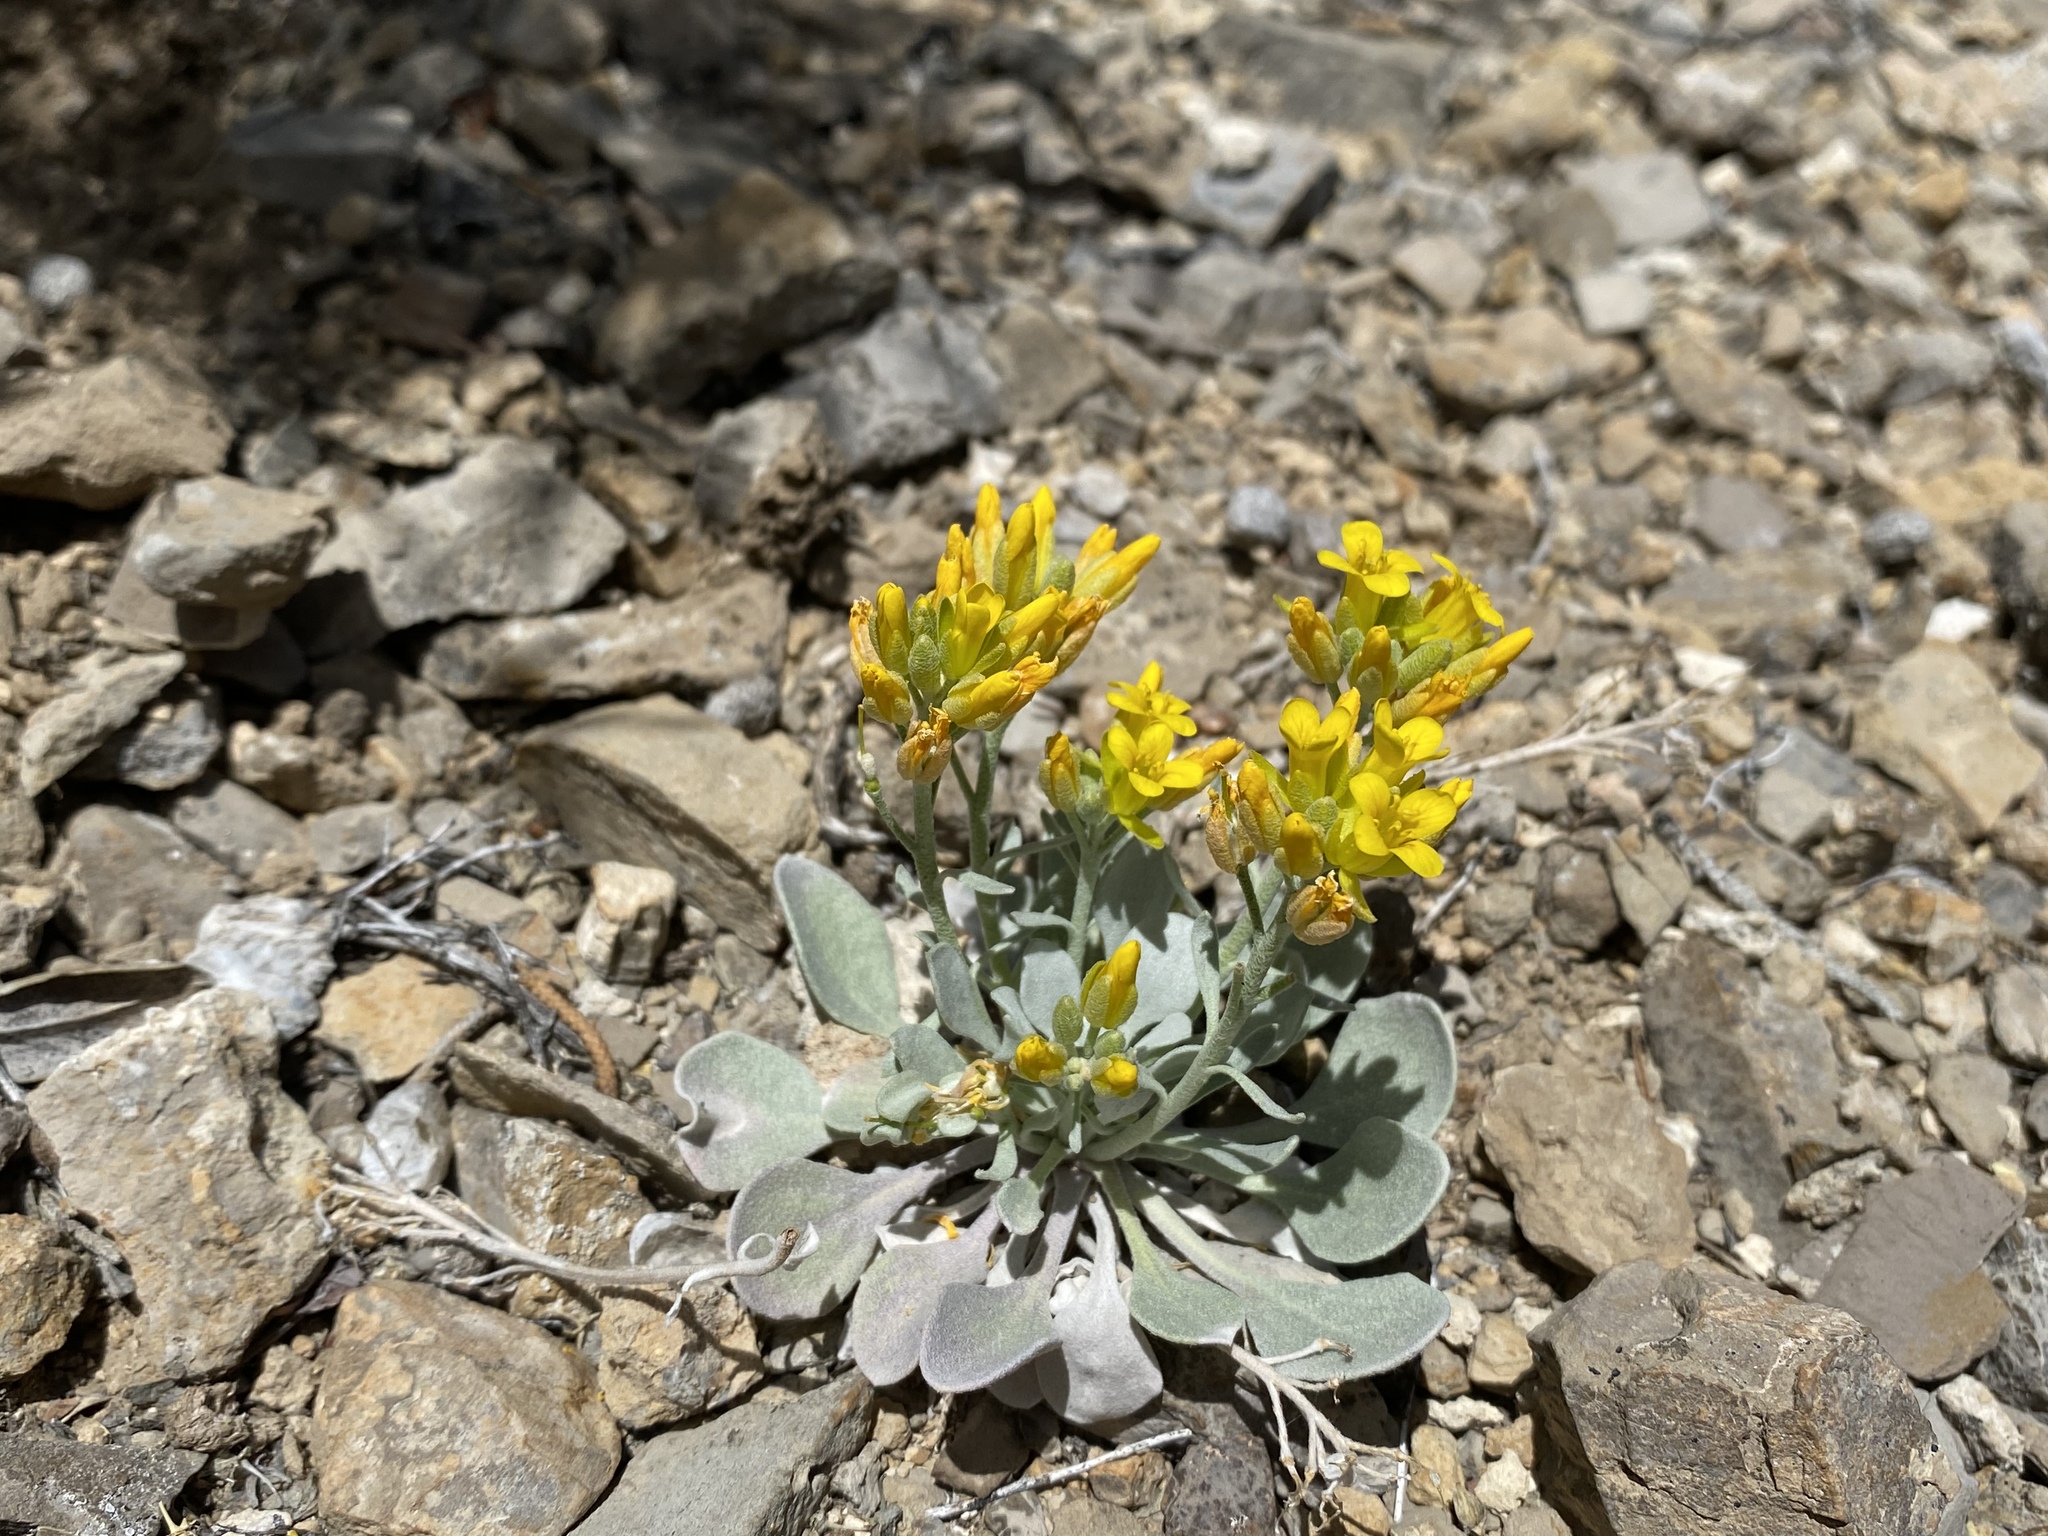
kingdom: Plantae
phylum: Tracheophyta
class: Magnoliopsida
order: Brassicales
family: Brassicaceae
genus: Physaria
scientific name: Physaria chambersii
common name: Chamber's twinpod
